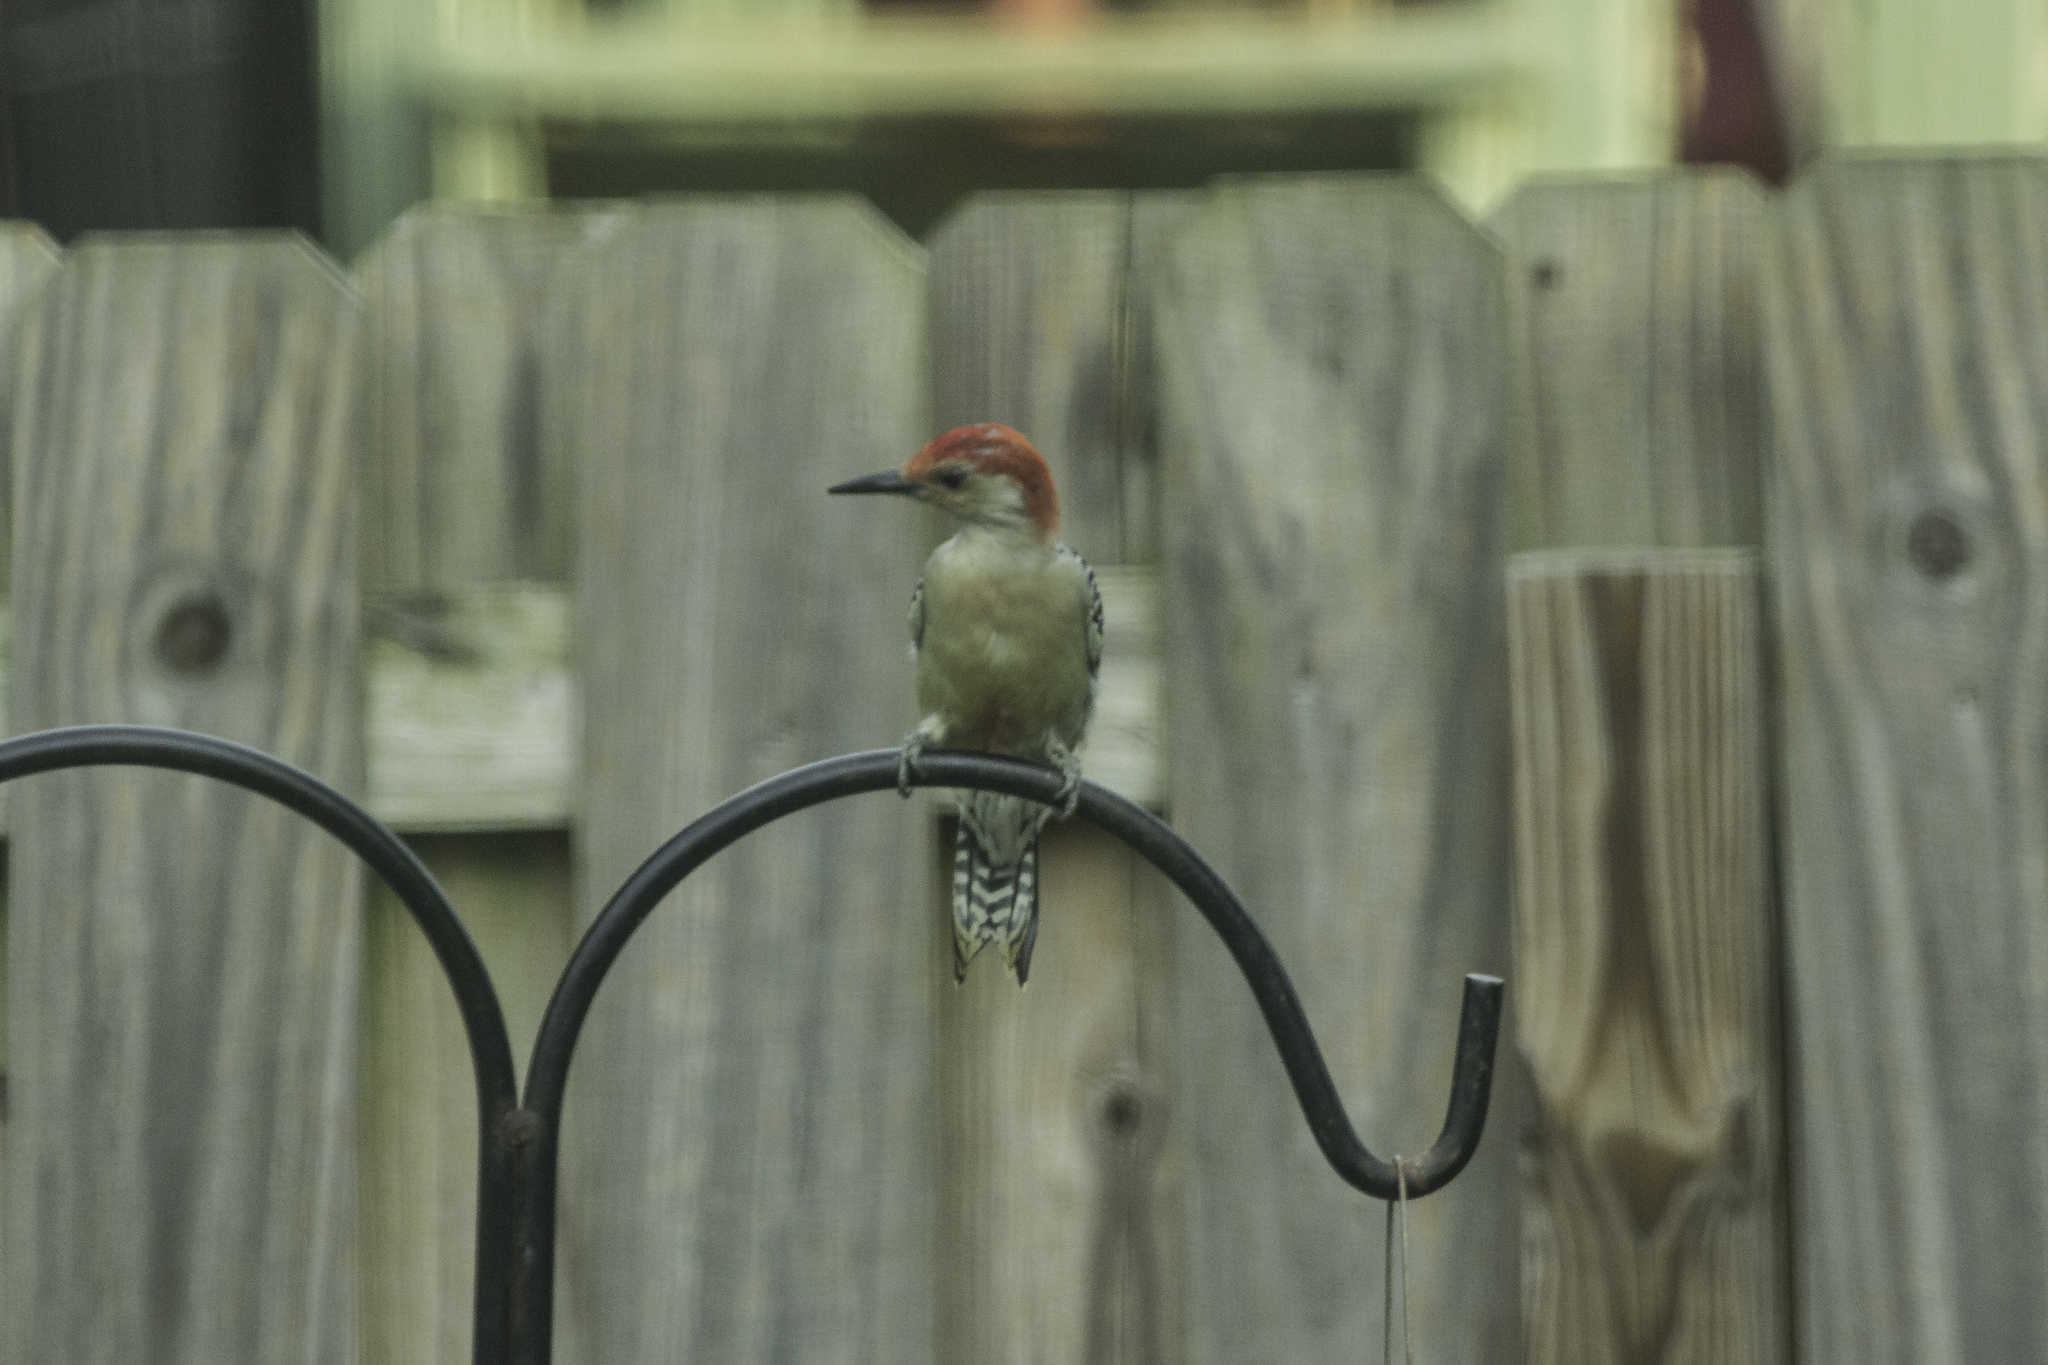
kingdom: Animalia
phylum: Chordata
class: Aves
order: Piciformes
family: Picidae
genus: Melanerpes
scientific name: Melanerpes carolinus
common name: Red-bellied woodpecker
